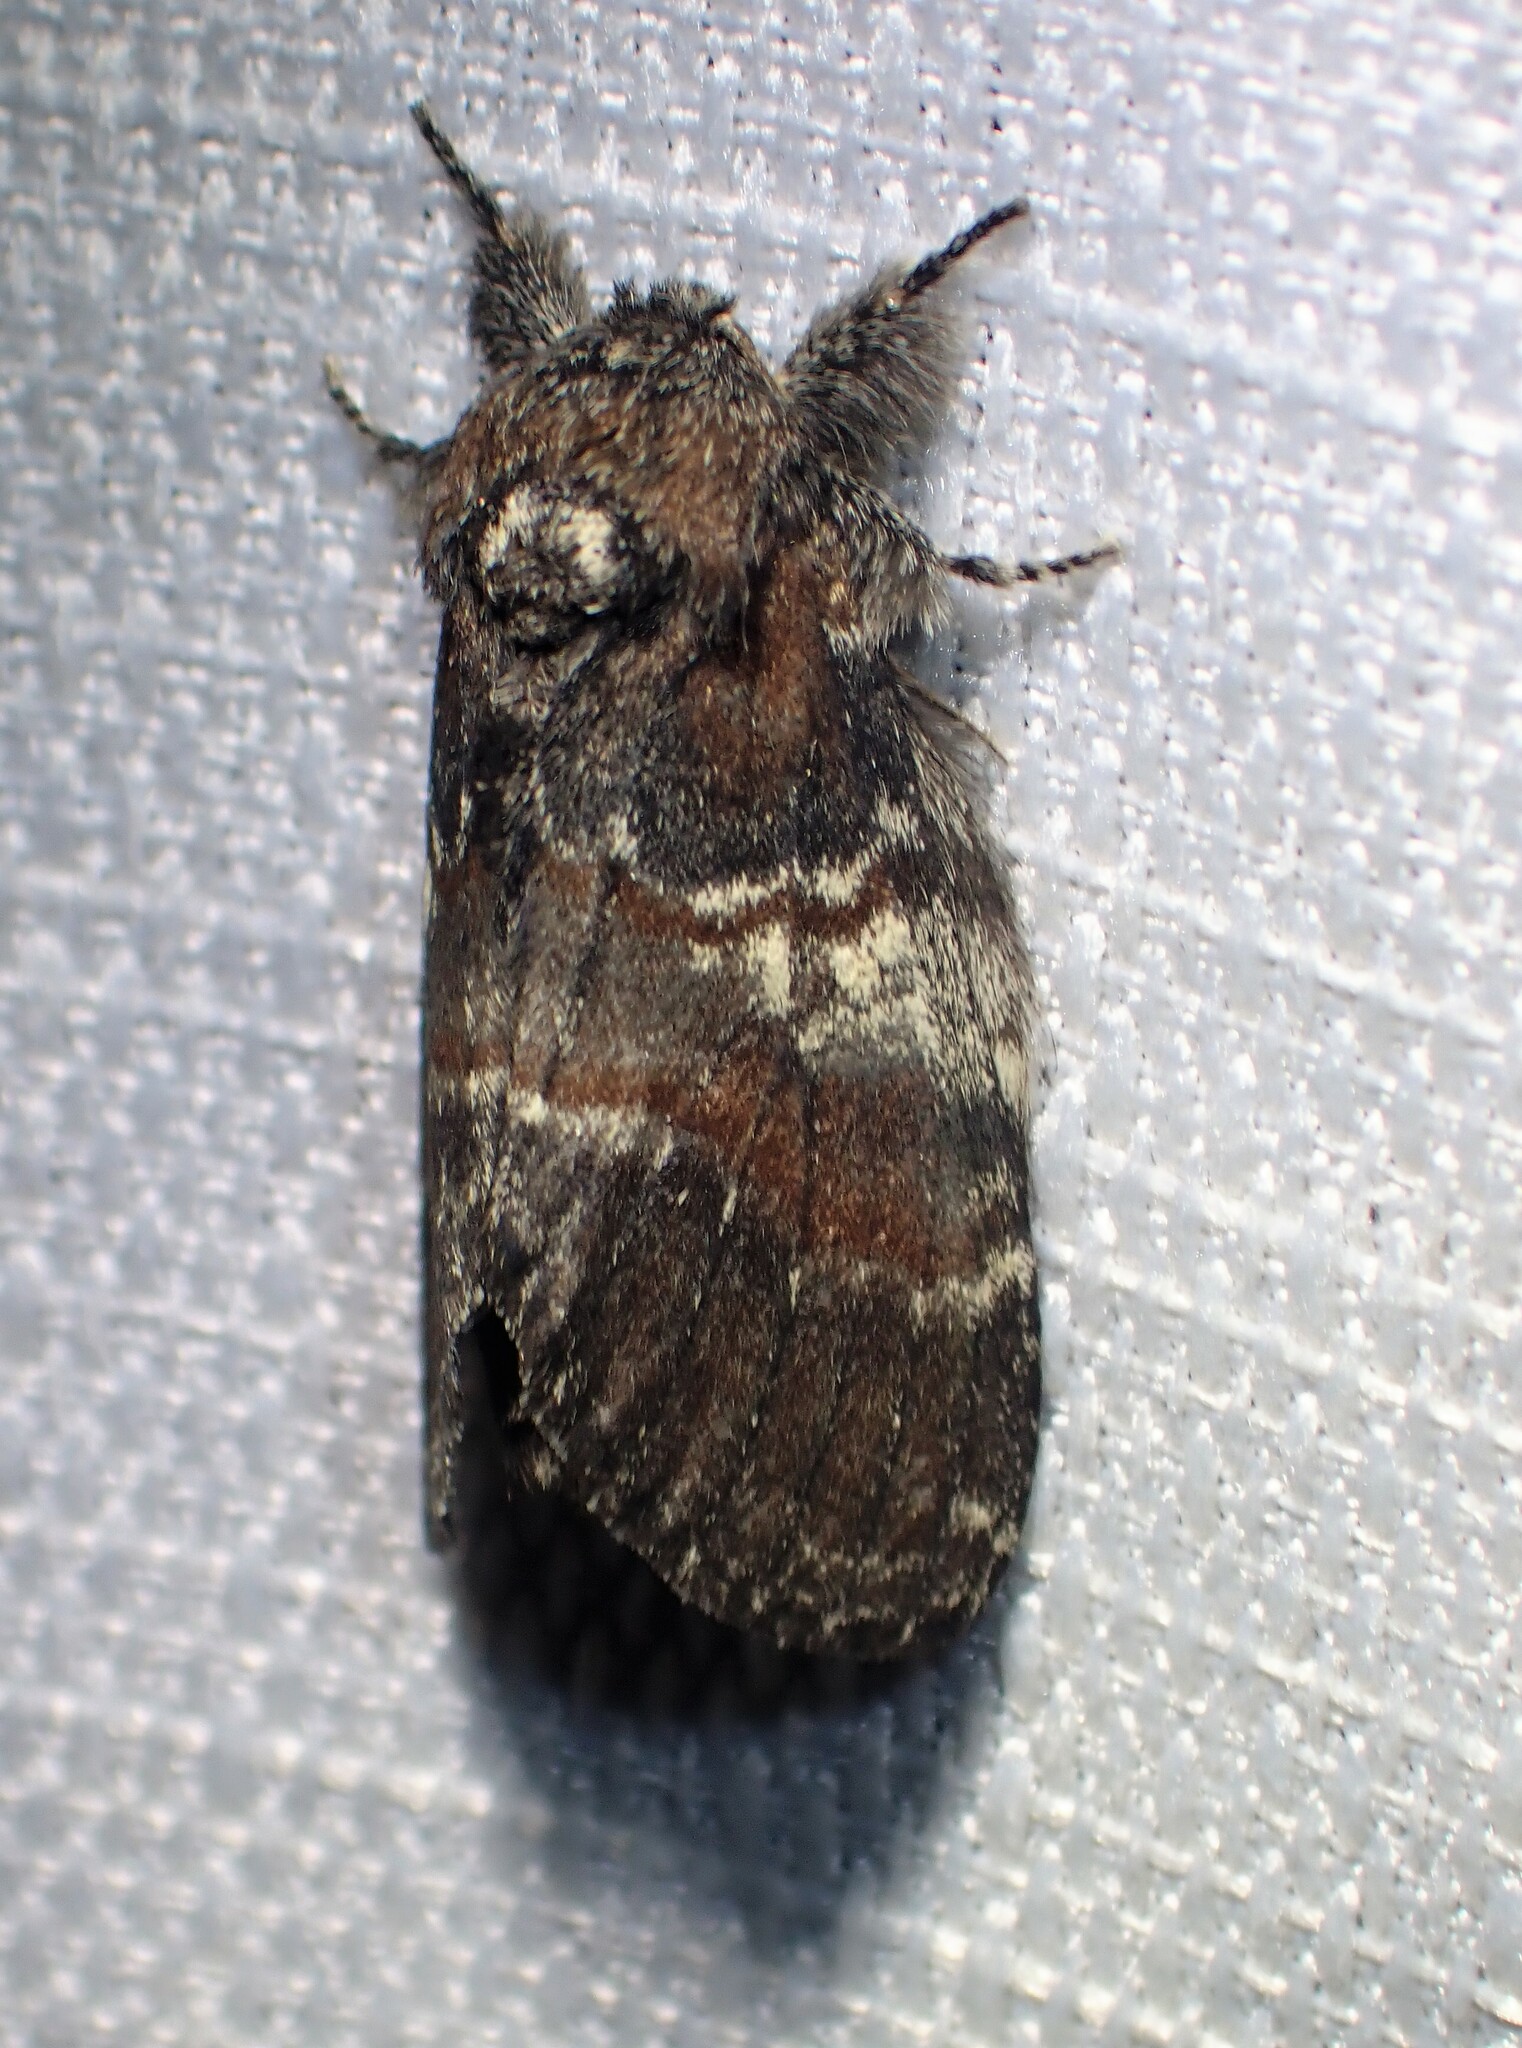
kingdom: Animalia
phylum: Arthropoda
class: Insecta
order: Lepidoptera
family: Notodontidae
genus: Peridea
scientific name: Peridea ferruginea
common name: Chocolate prominent
